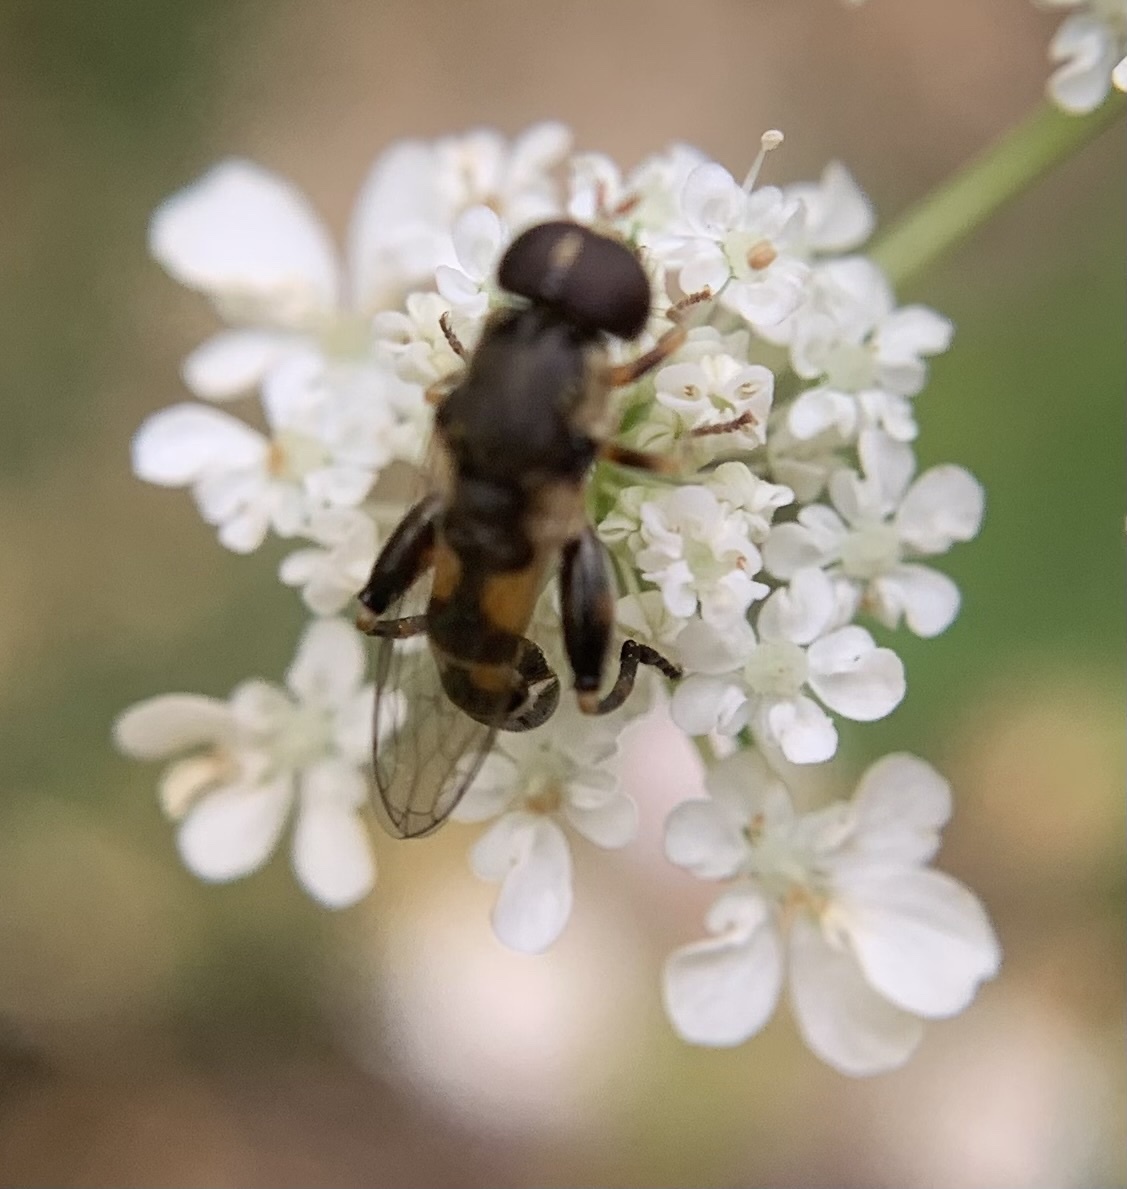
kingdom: Animalia
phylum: Arthropoda
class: Insecta
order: Diptera
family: Syrphidae
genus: Syritta
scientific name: Syritta pipiens
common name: Hover fly
